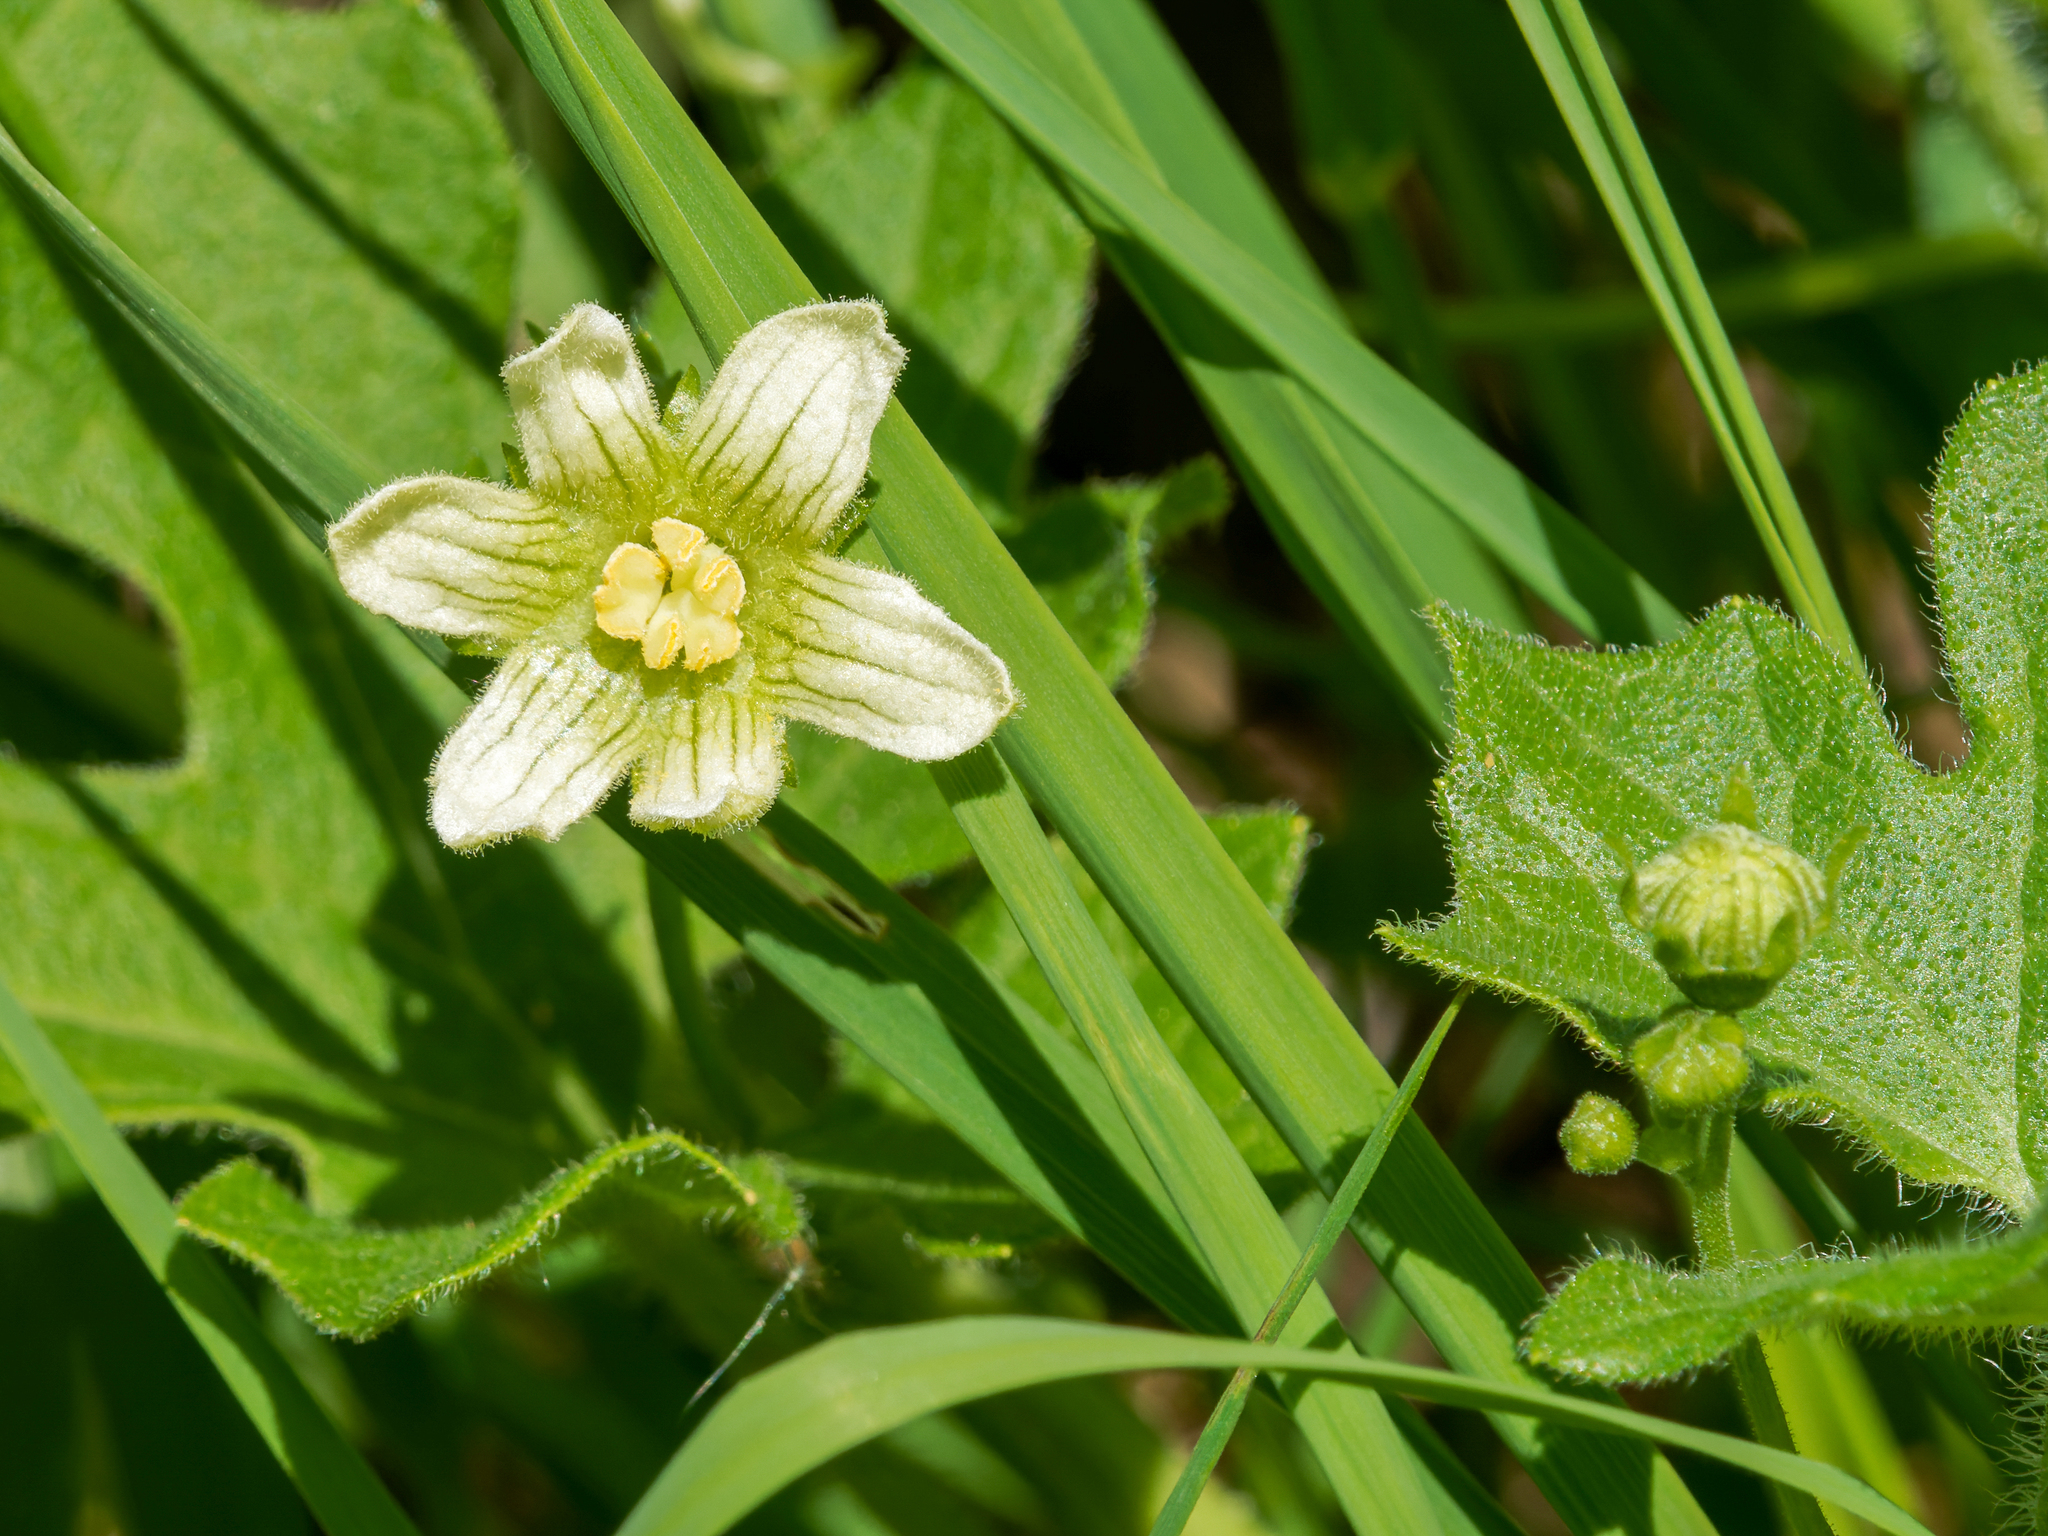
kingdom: Plantae
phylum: Tracheophyta
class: Magnoliopsida
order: Cucurbitales
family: Cucurbitaceae
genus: Bryonia
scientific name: Bryonia cretica
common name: Cretan bryony
